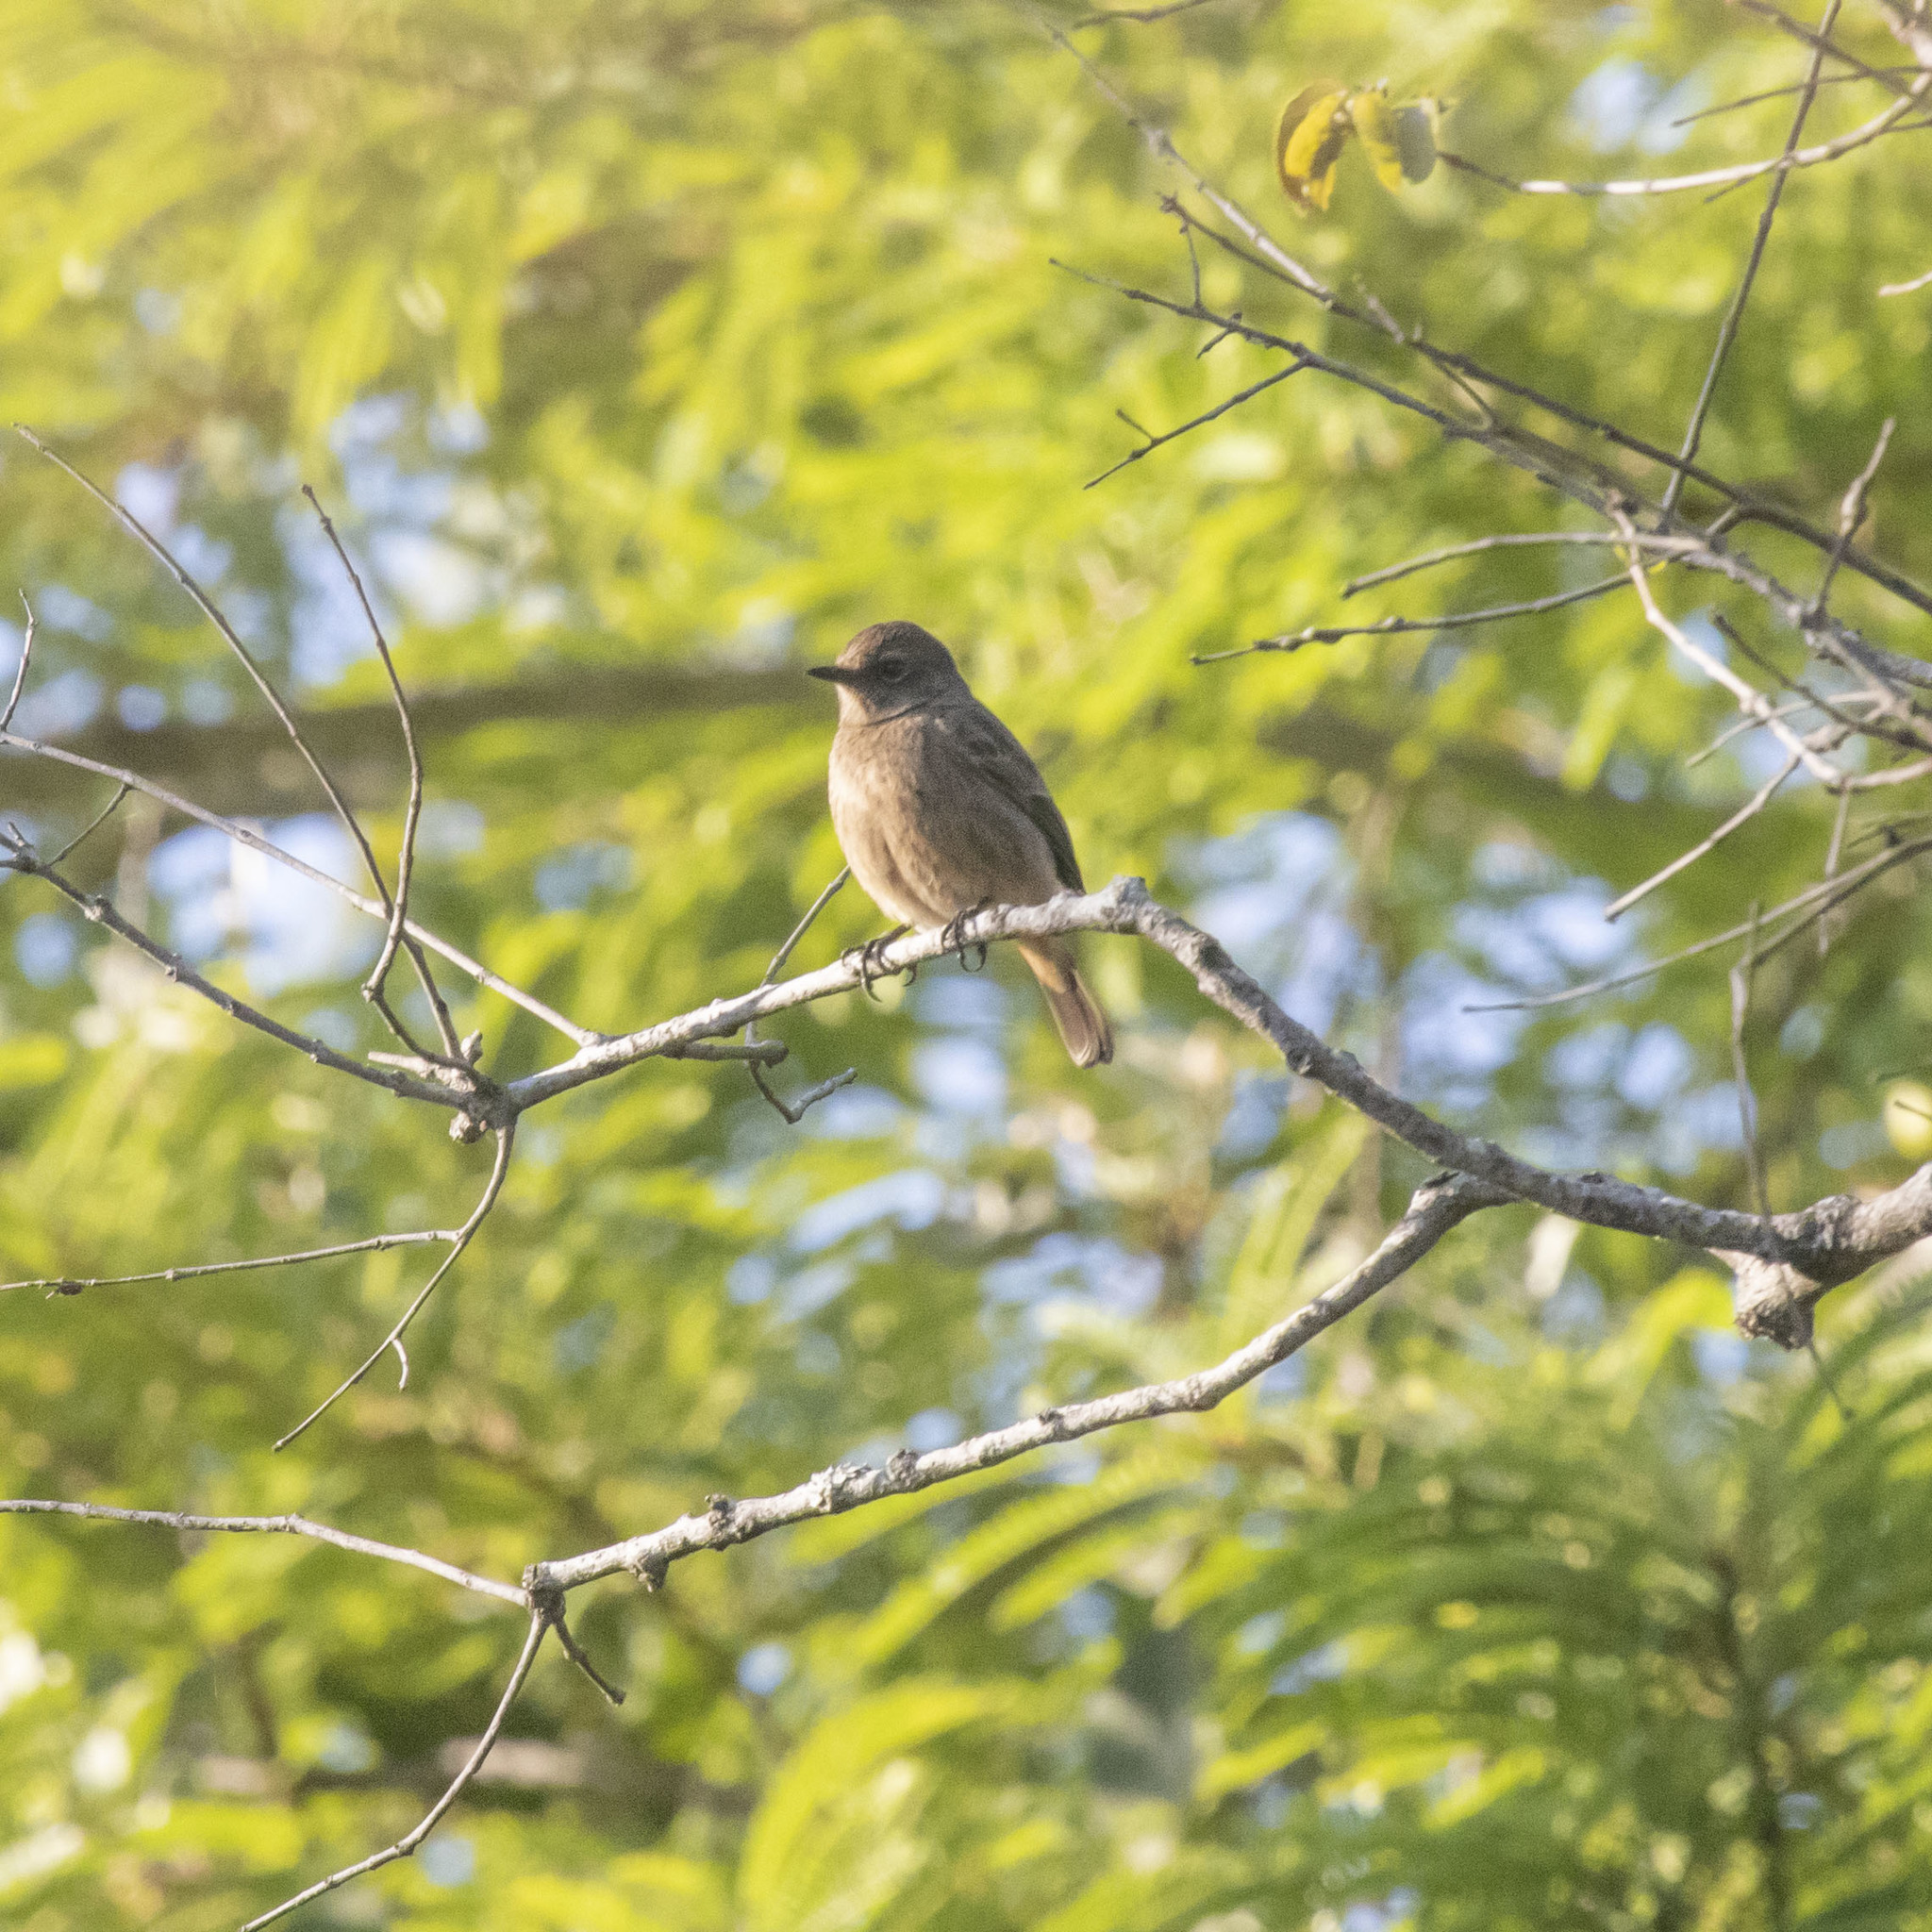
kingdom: Animalia
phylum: Chordata
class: Aves
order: Passeriformes
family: Muscicapidae
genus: Saxicola
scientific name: Saxicola caprata
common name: Pied bush chat
